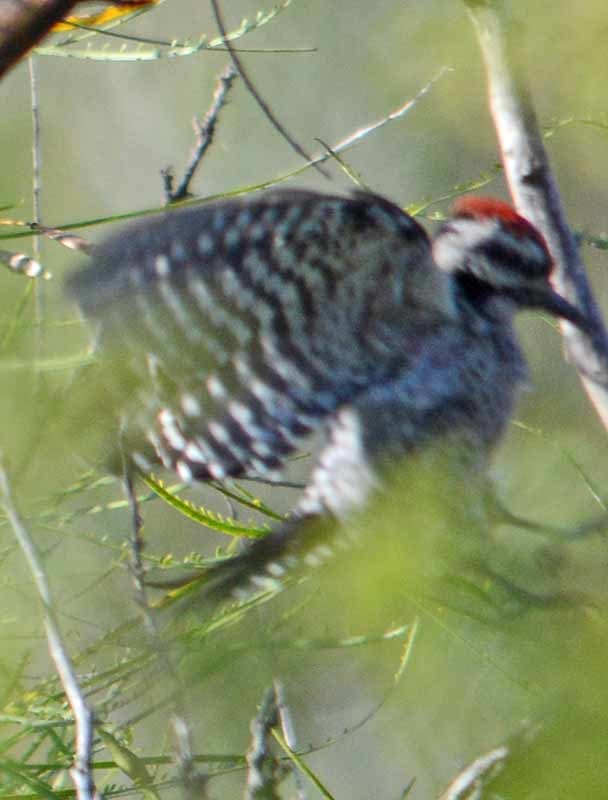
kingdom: Animalia
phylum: Chordata
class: Aves
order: Piciformes
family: Picidae
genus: Dryobates
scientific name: Dryobates scalaris
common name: Ladder-backed woodpecker
